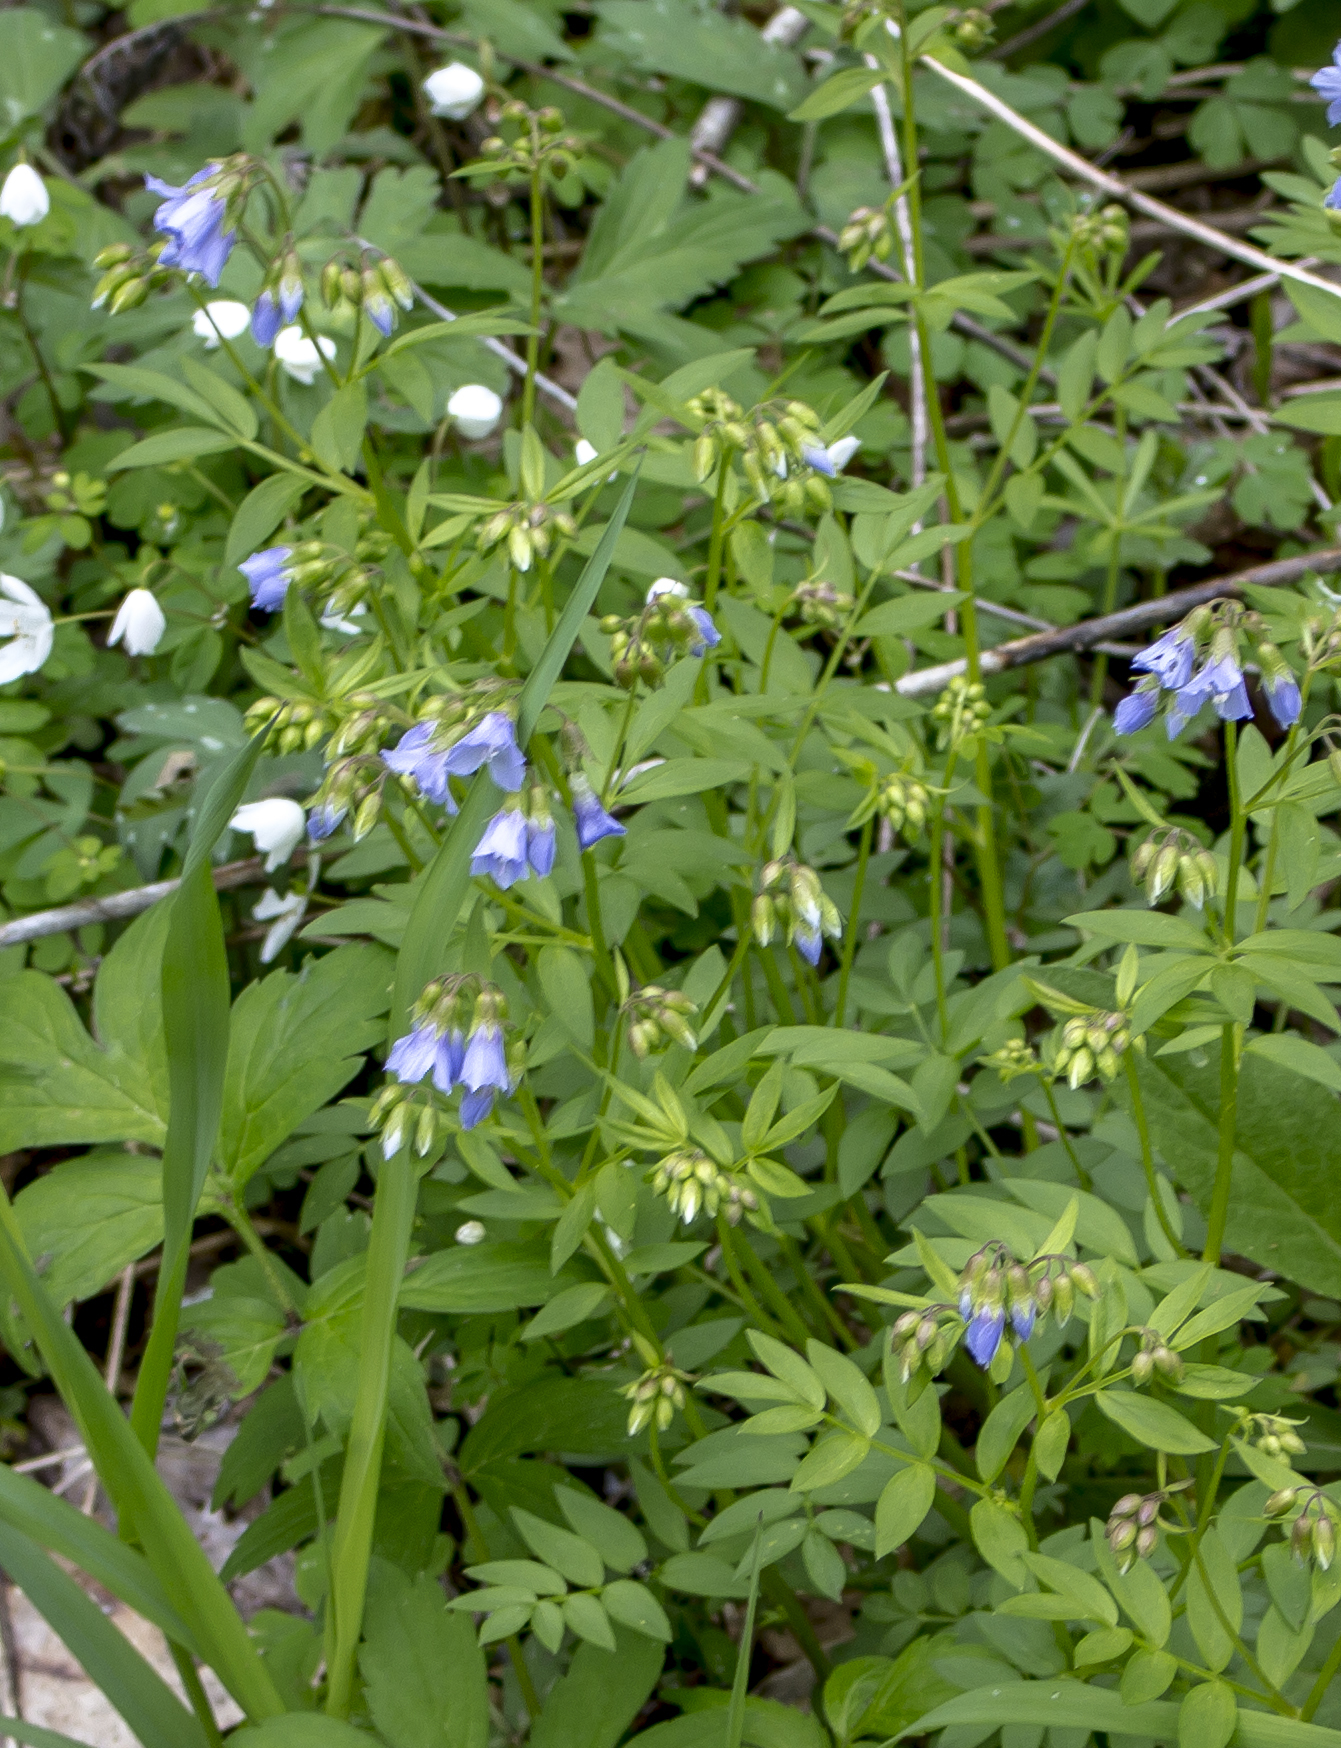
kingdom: Plantae
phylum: Tracheophyta
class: Magnoliopsida
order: Ericales
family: Polemoniaceae
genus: Polemonium
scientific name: Polemonium reptans
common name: Creeping jacob's-ladder
